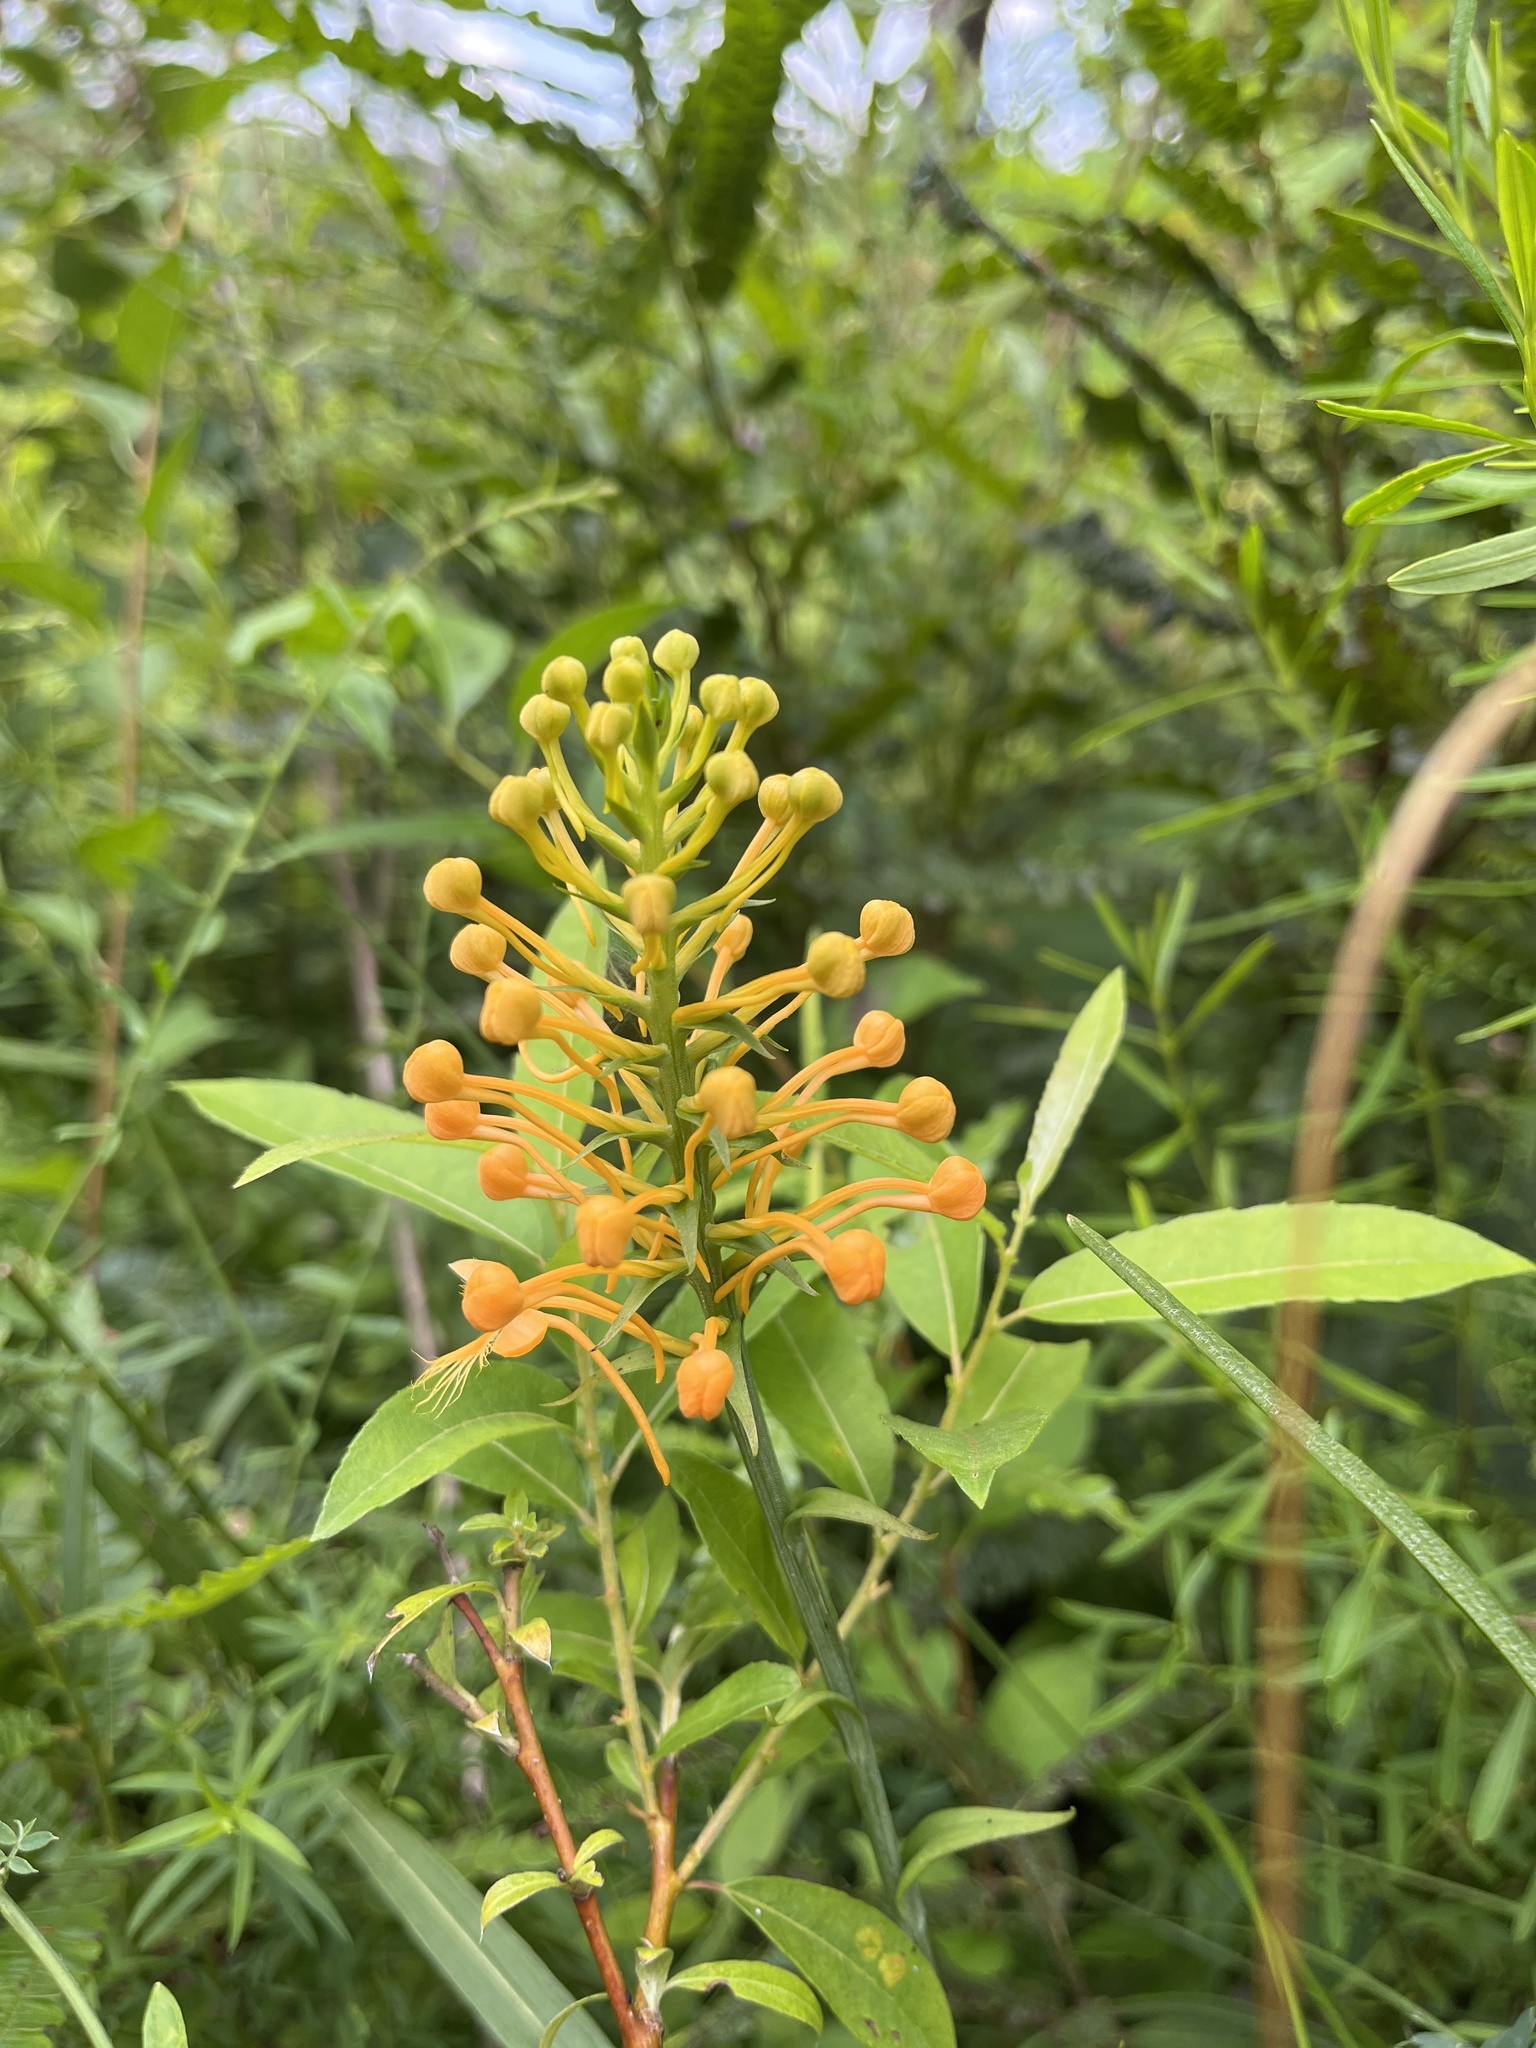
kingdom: Plantae
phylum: Tracheophyta
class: Liliopsida
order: Asparagales
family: Orchidaceae
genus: Platanthera
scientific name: Platanthera ciliaris
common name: Yellow fringed orchid
